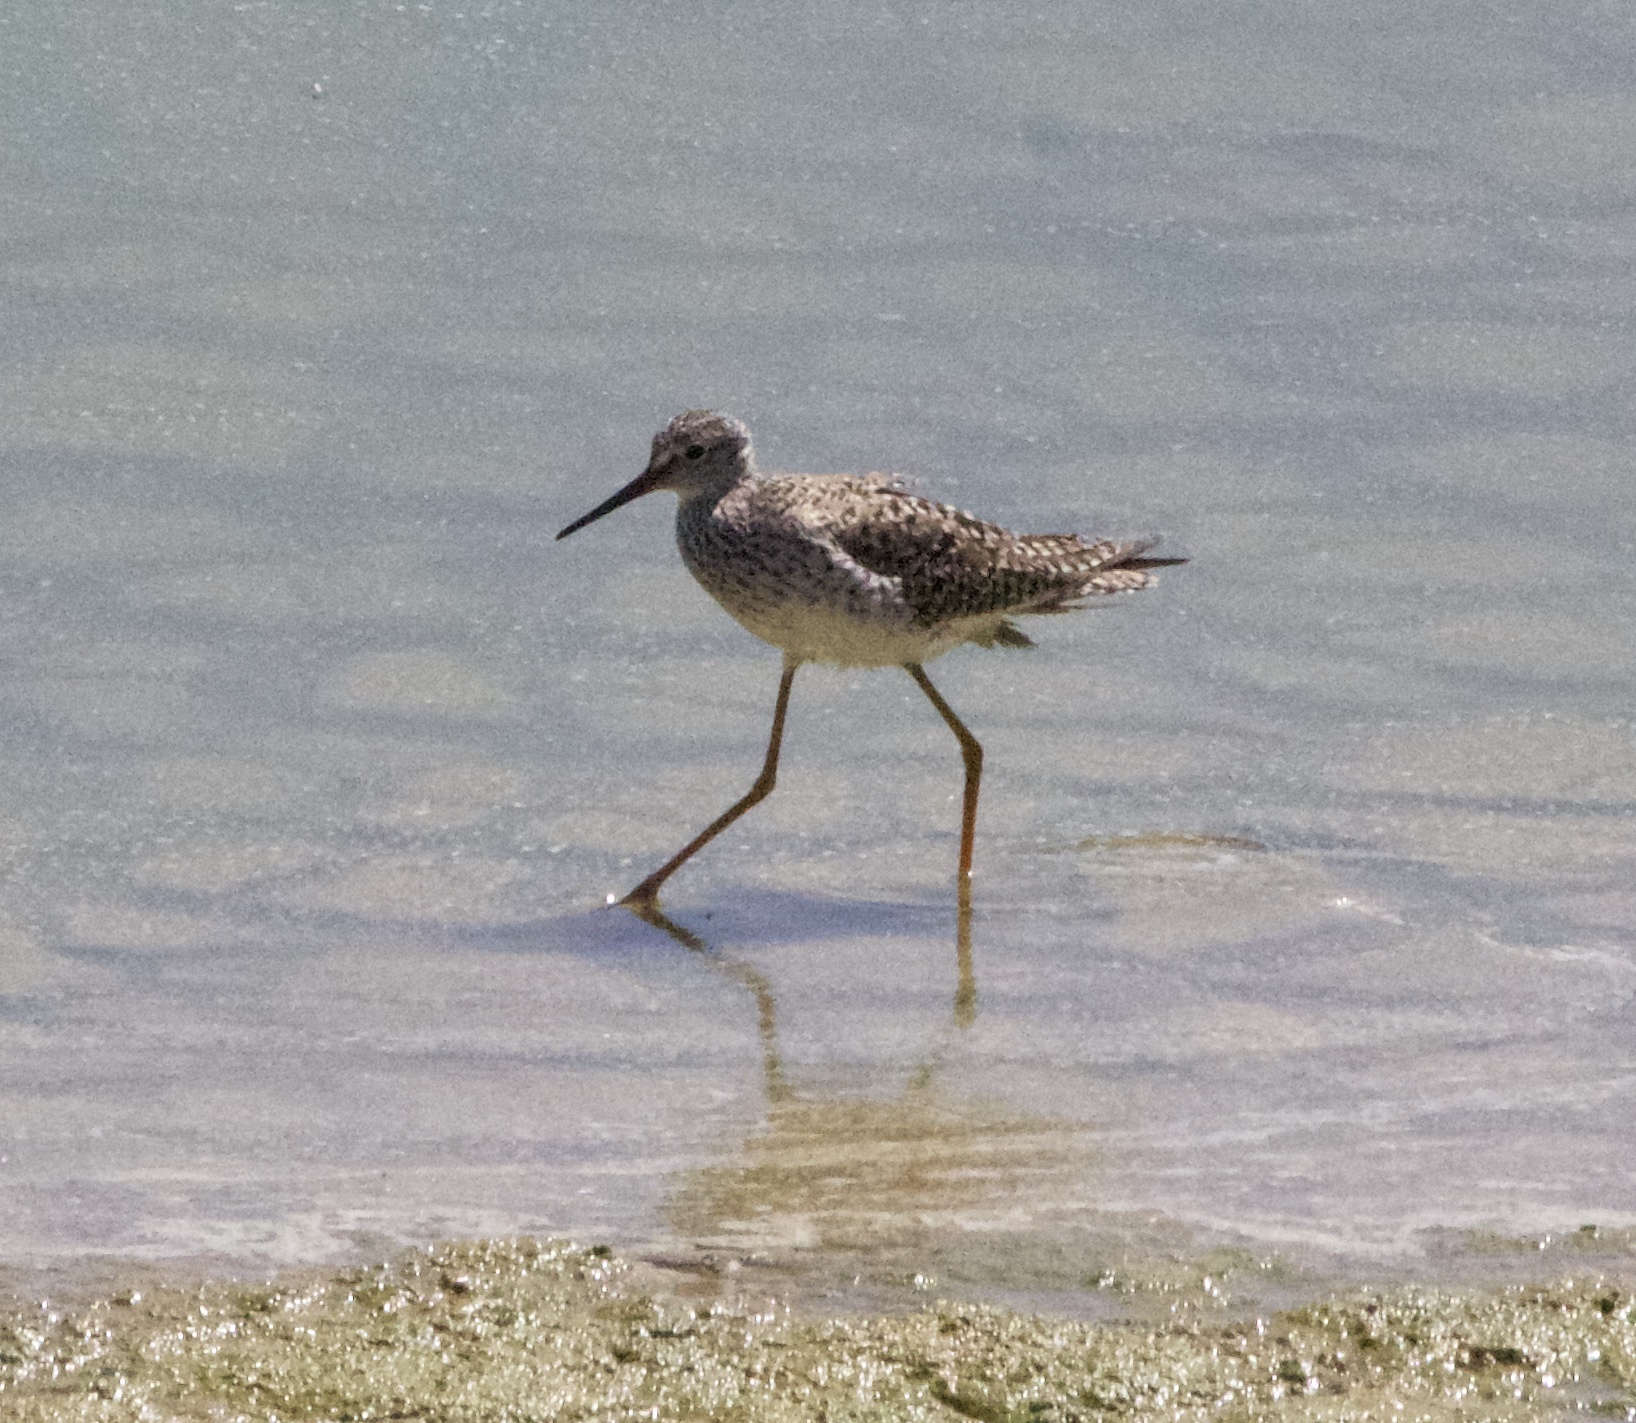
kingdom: Animalia
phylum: Chordata
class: Aves
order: Charadriiformes
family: Scolopacidae
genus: Tringa
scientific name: Tringa flavipes
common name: Lesser yellowlegs
